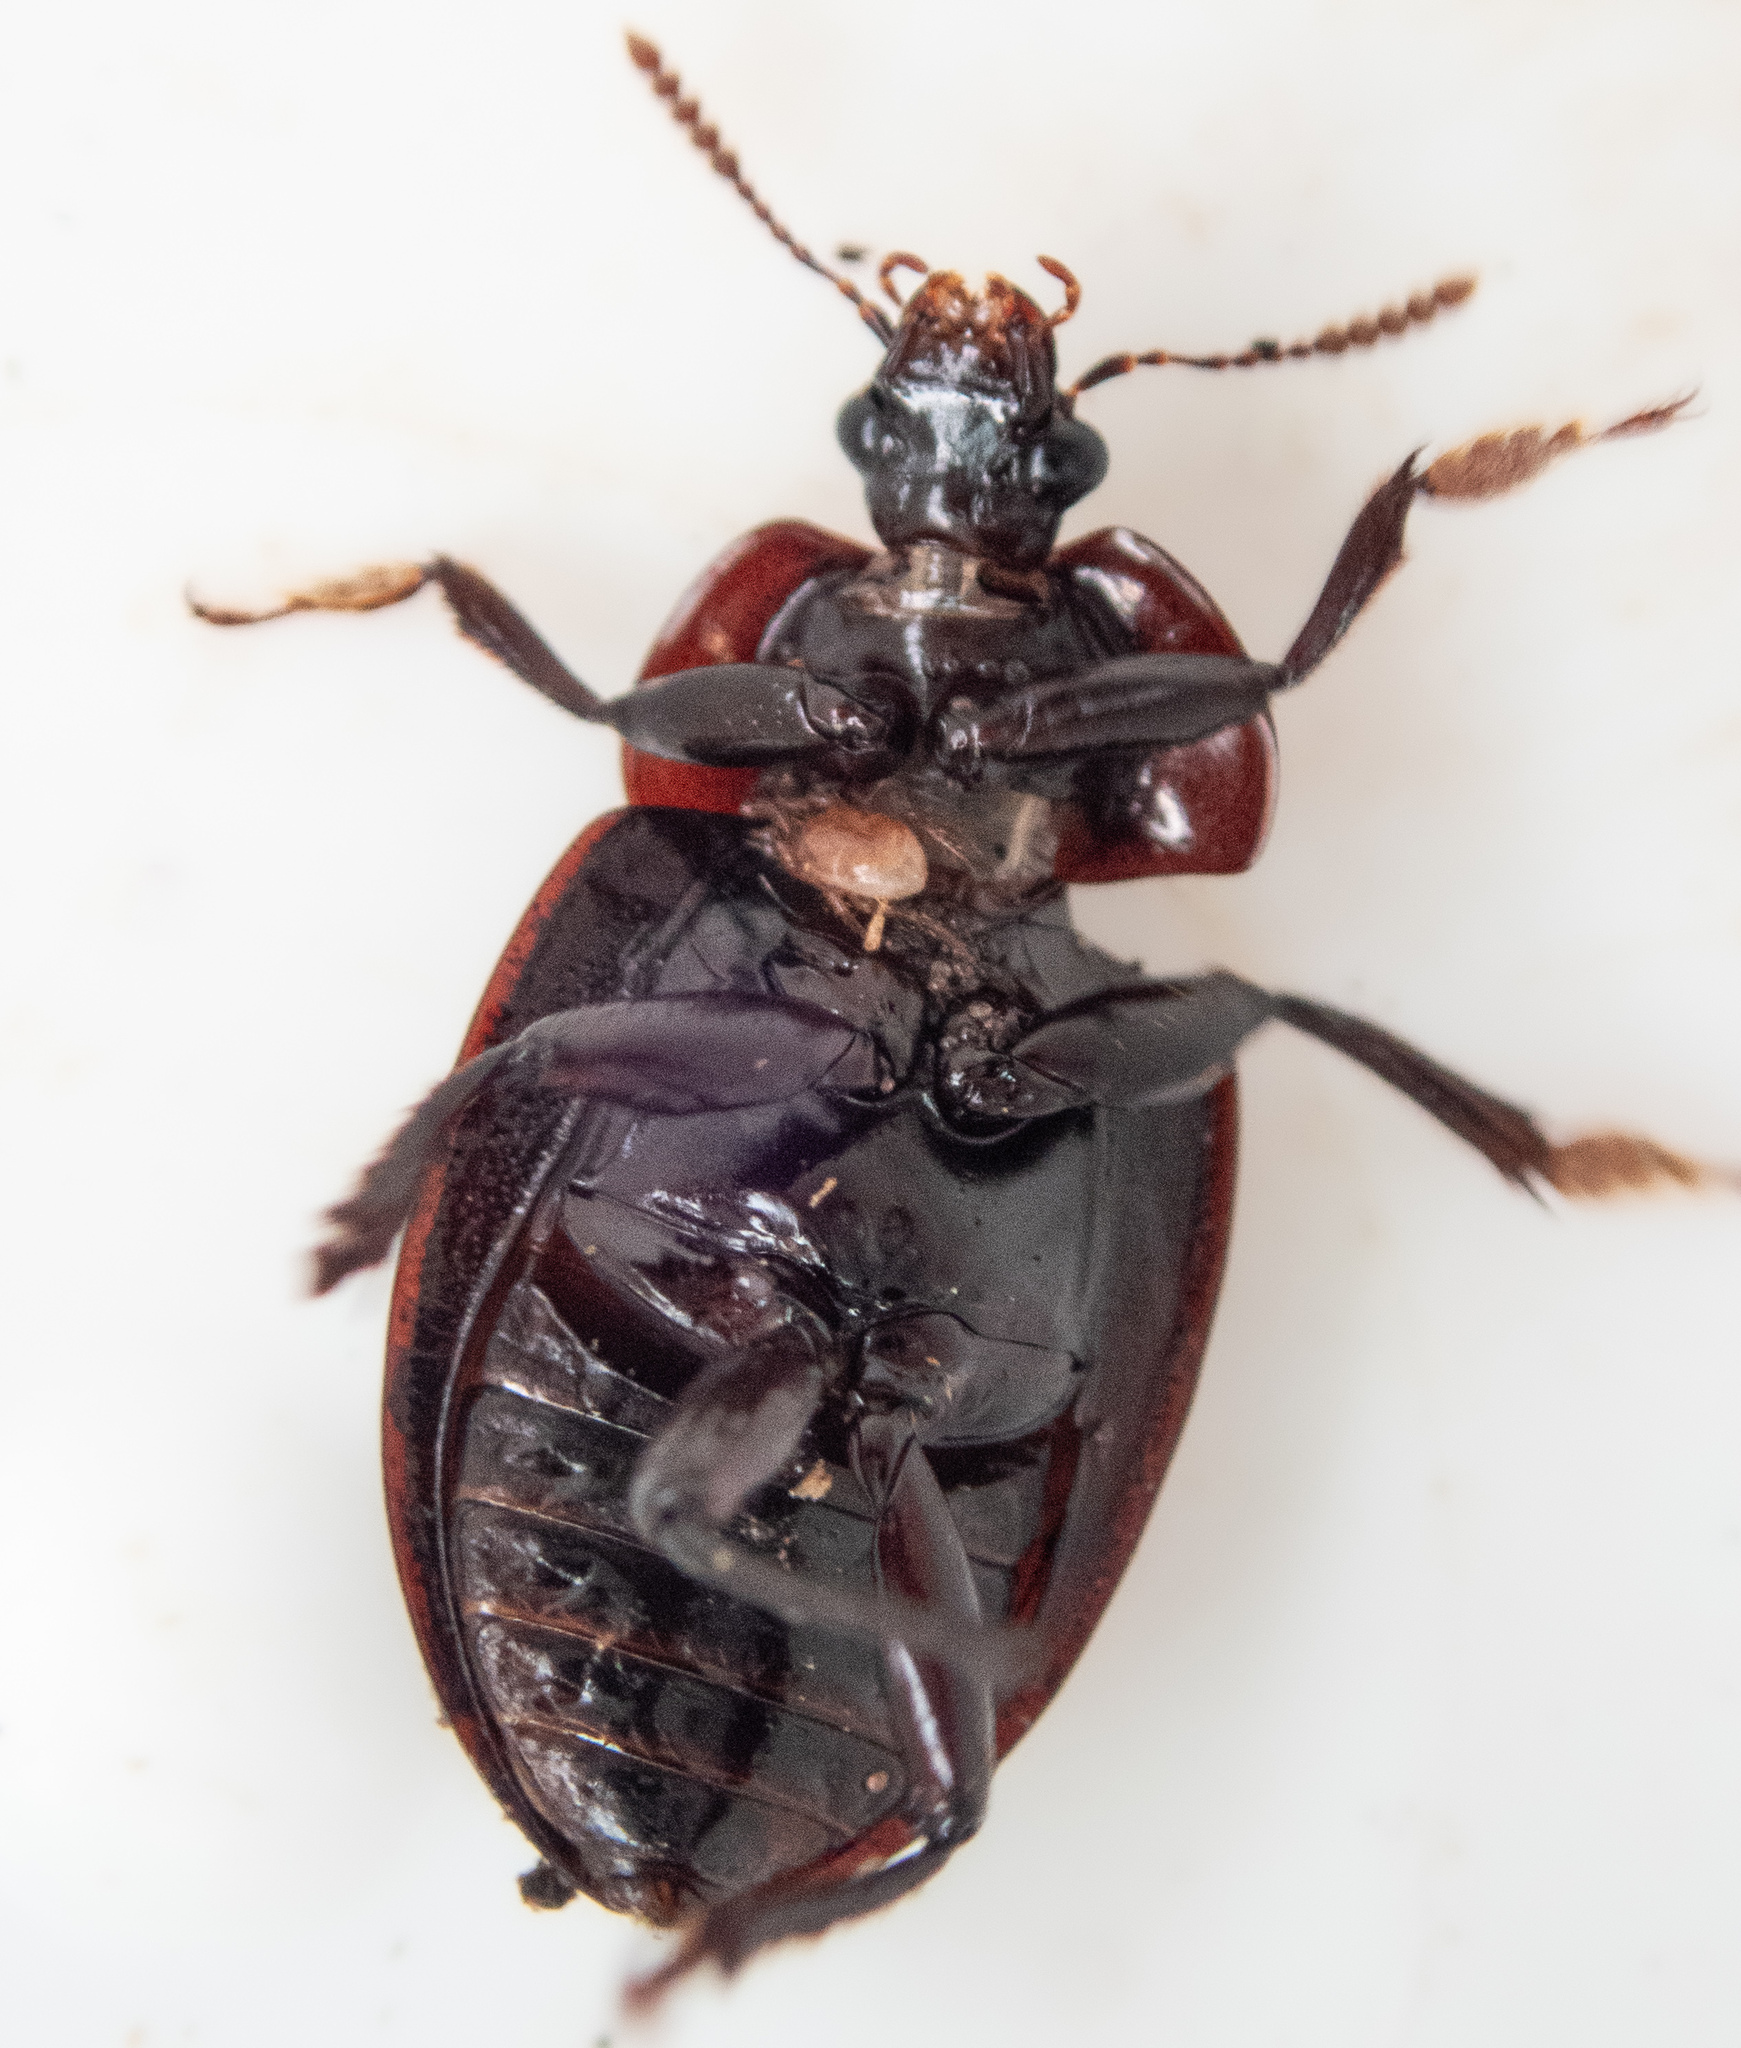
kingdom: Animalia
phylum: Arthropoda
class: Insecta
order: Coleoptera
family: Agyrtidae
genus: Necrophilus
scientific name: Necrophilus hydrophiloides
